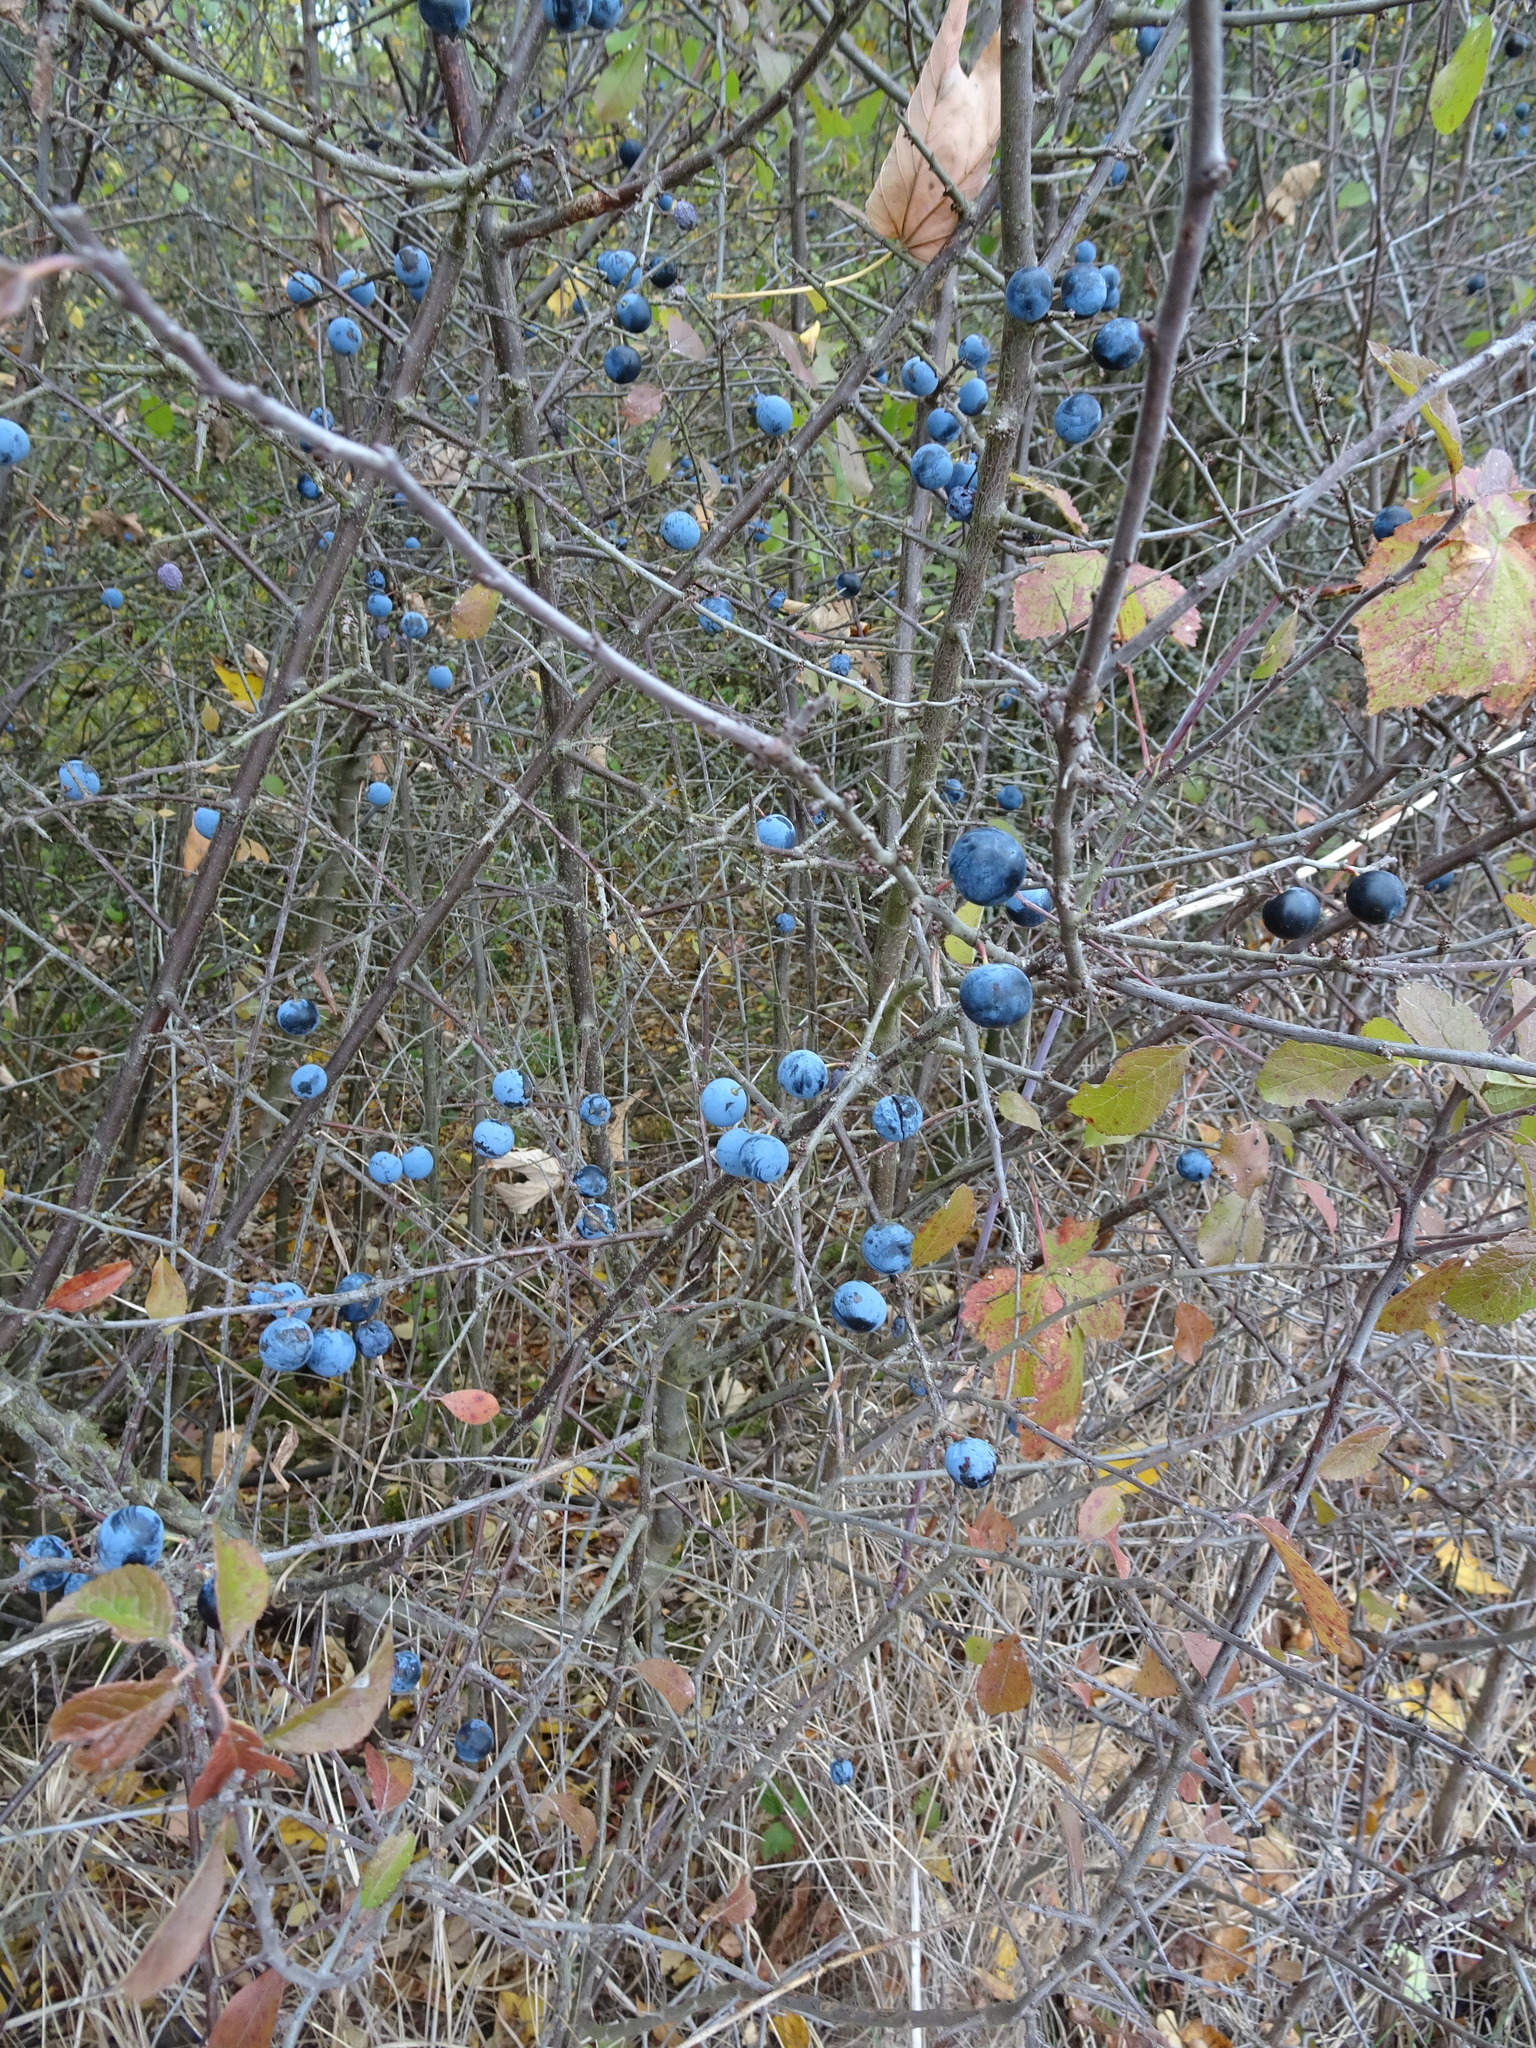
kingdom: Plantae
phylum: Tracheophyta
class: Magnoliopsida
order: Rosales
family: Rosaceae
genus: Prunus
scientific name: Prunus spinosa
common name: Blackthorn
